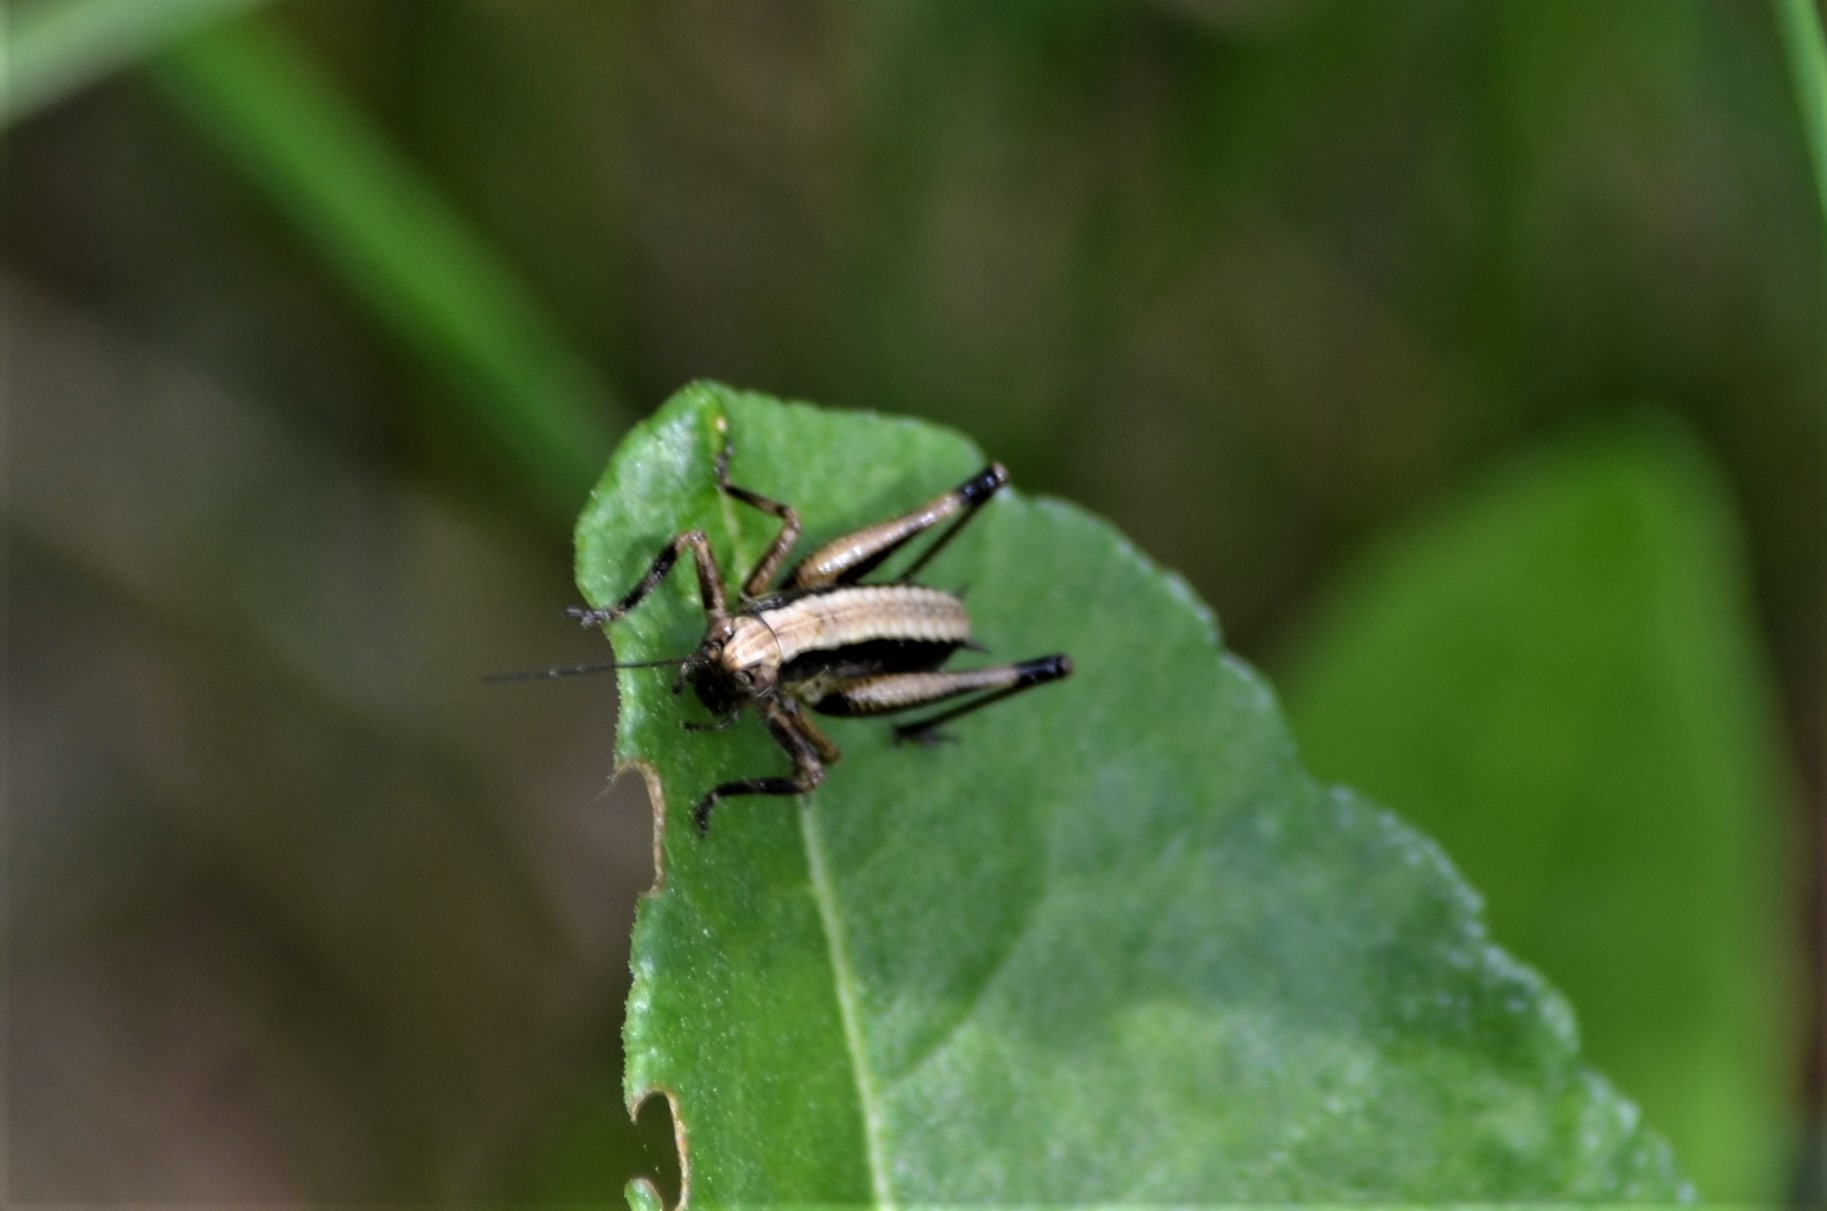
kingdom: Animalia
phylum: Arthropoda
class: Insecta
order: Orthoptera
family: Tettigoniidae
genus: Pholidoptera
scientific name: Pholidoptera griseoaptera
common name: Dark bush-cricket
